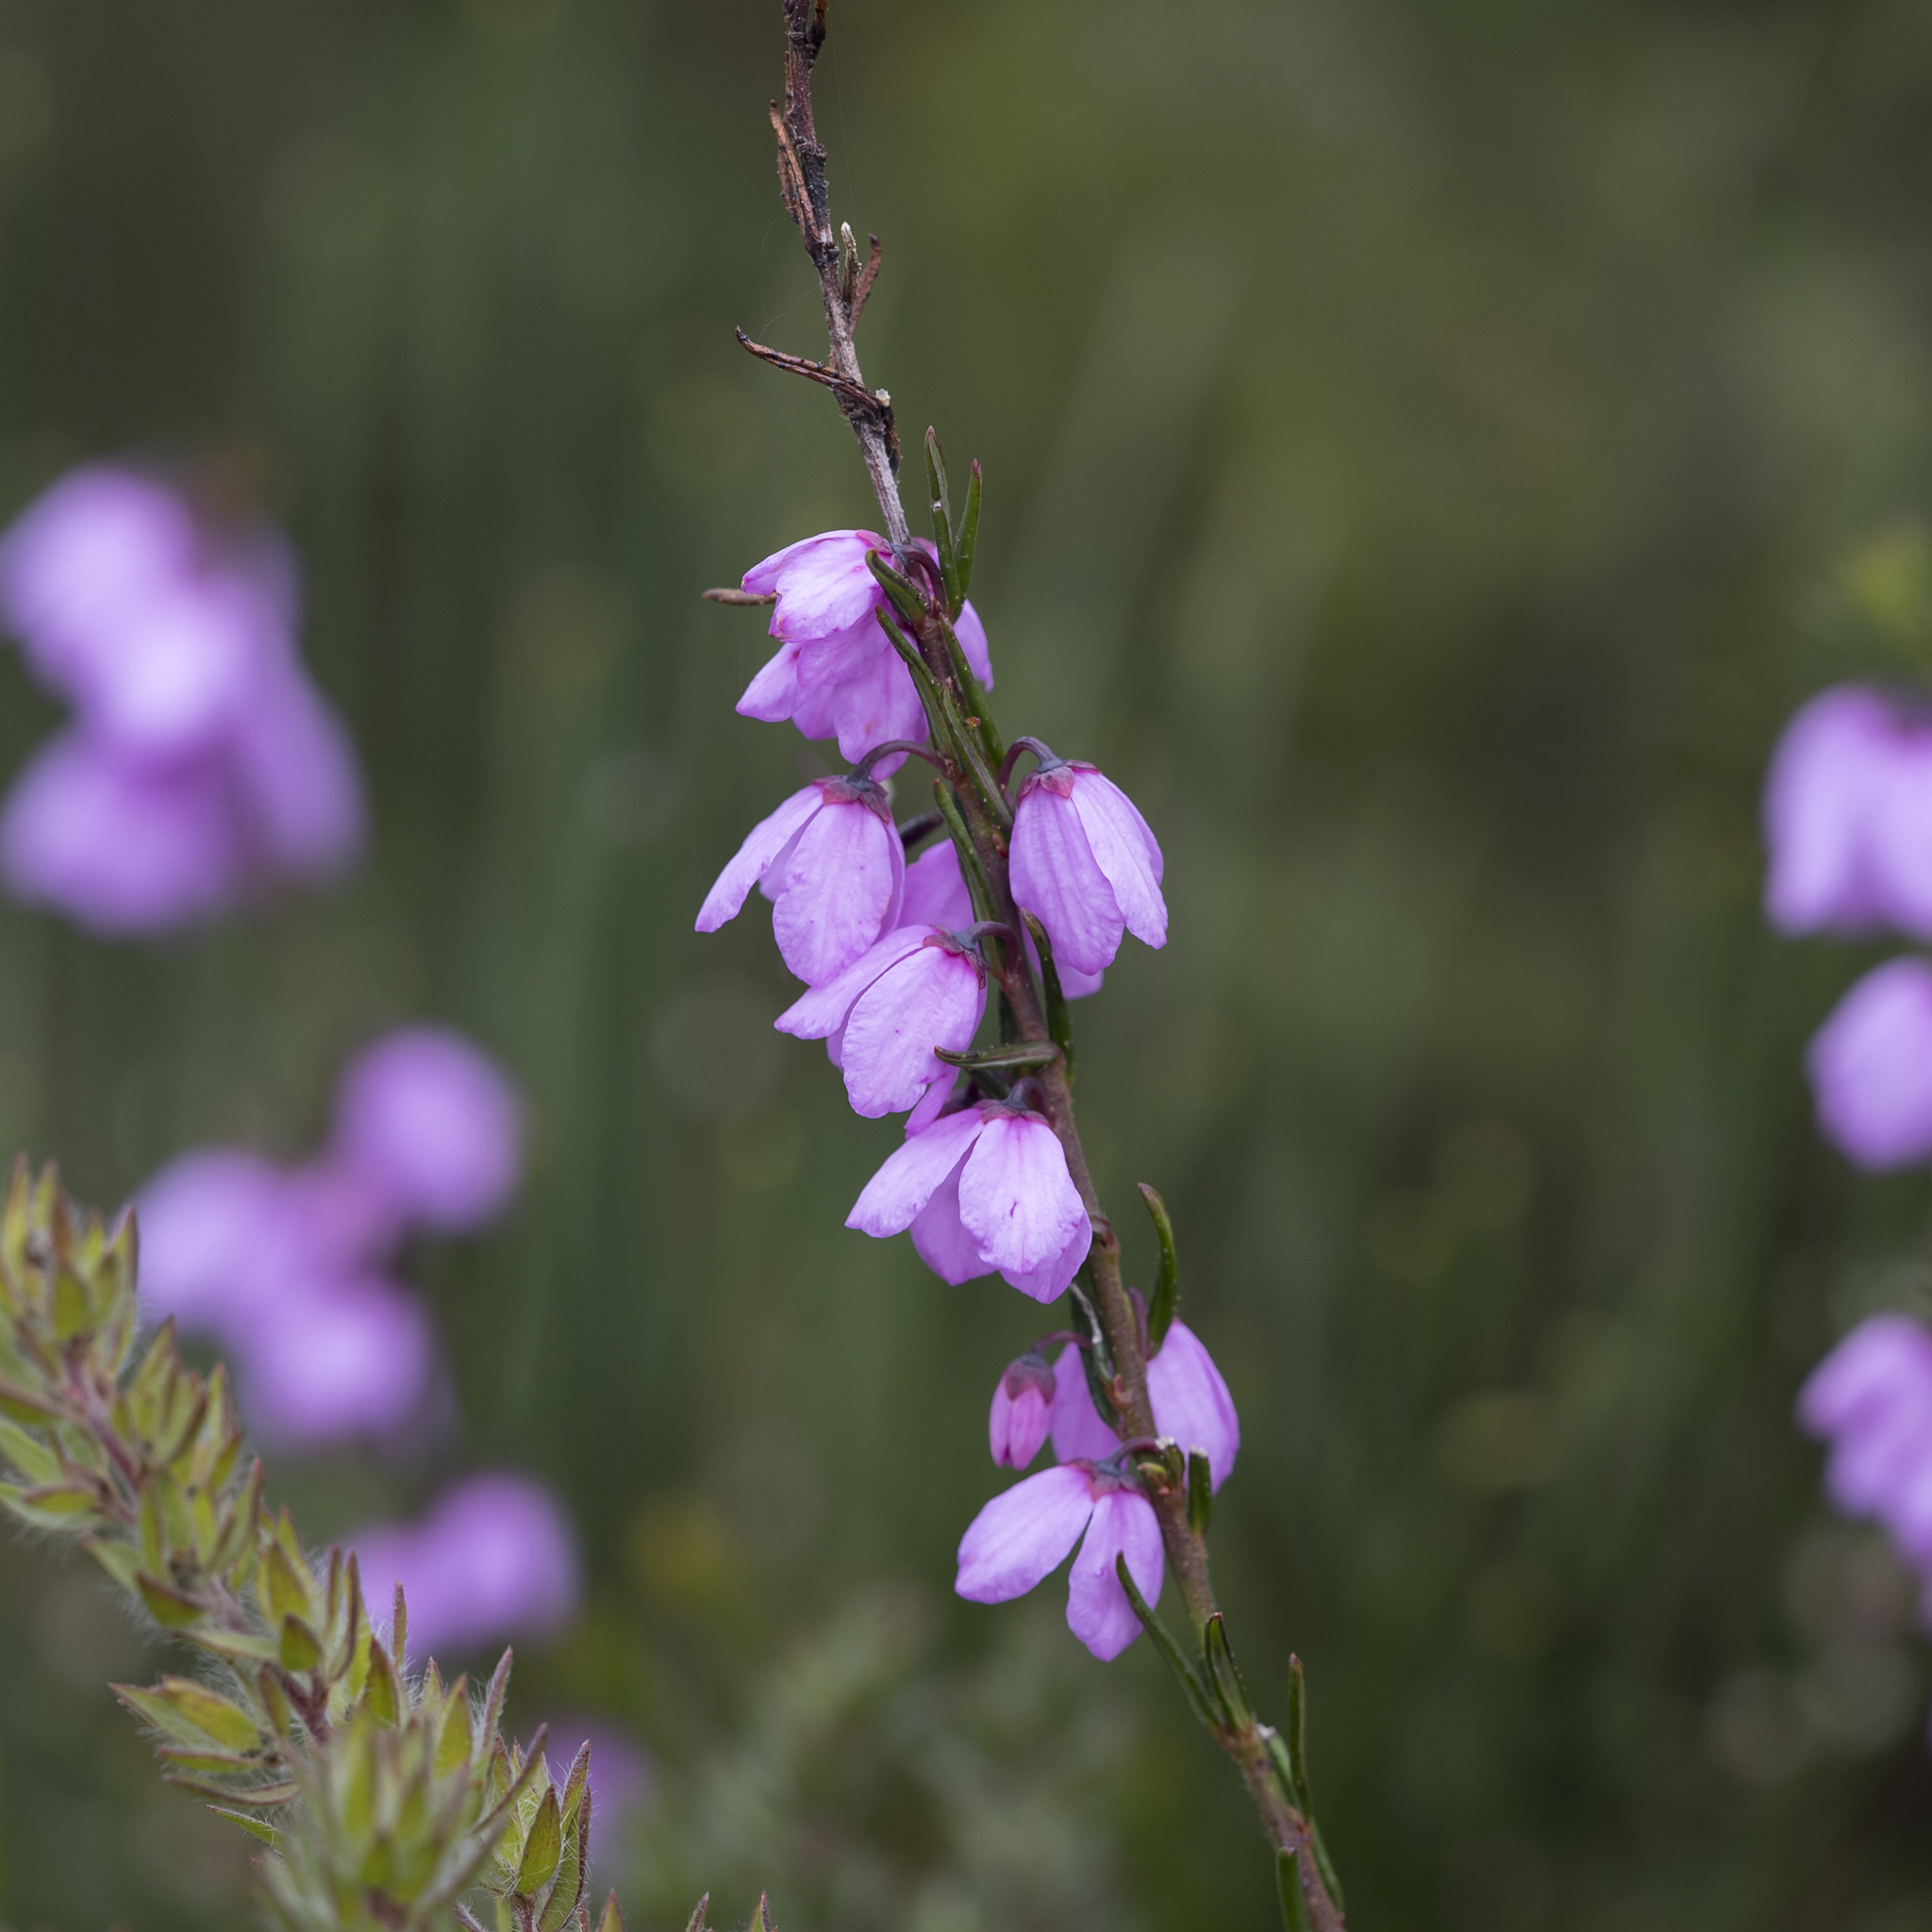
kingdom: Plantae
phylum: Tracheophyta
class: Magnoliopsida
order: Oxalidales
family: Elaeocarpaceae
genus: Tetratheca
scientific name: Tetratheca pilosa
